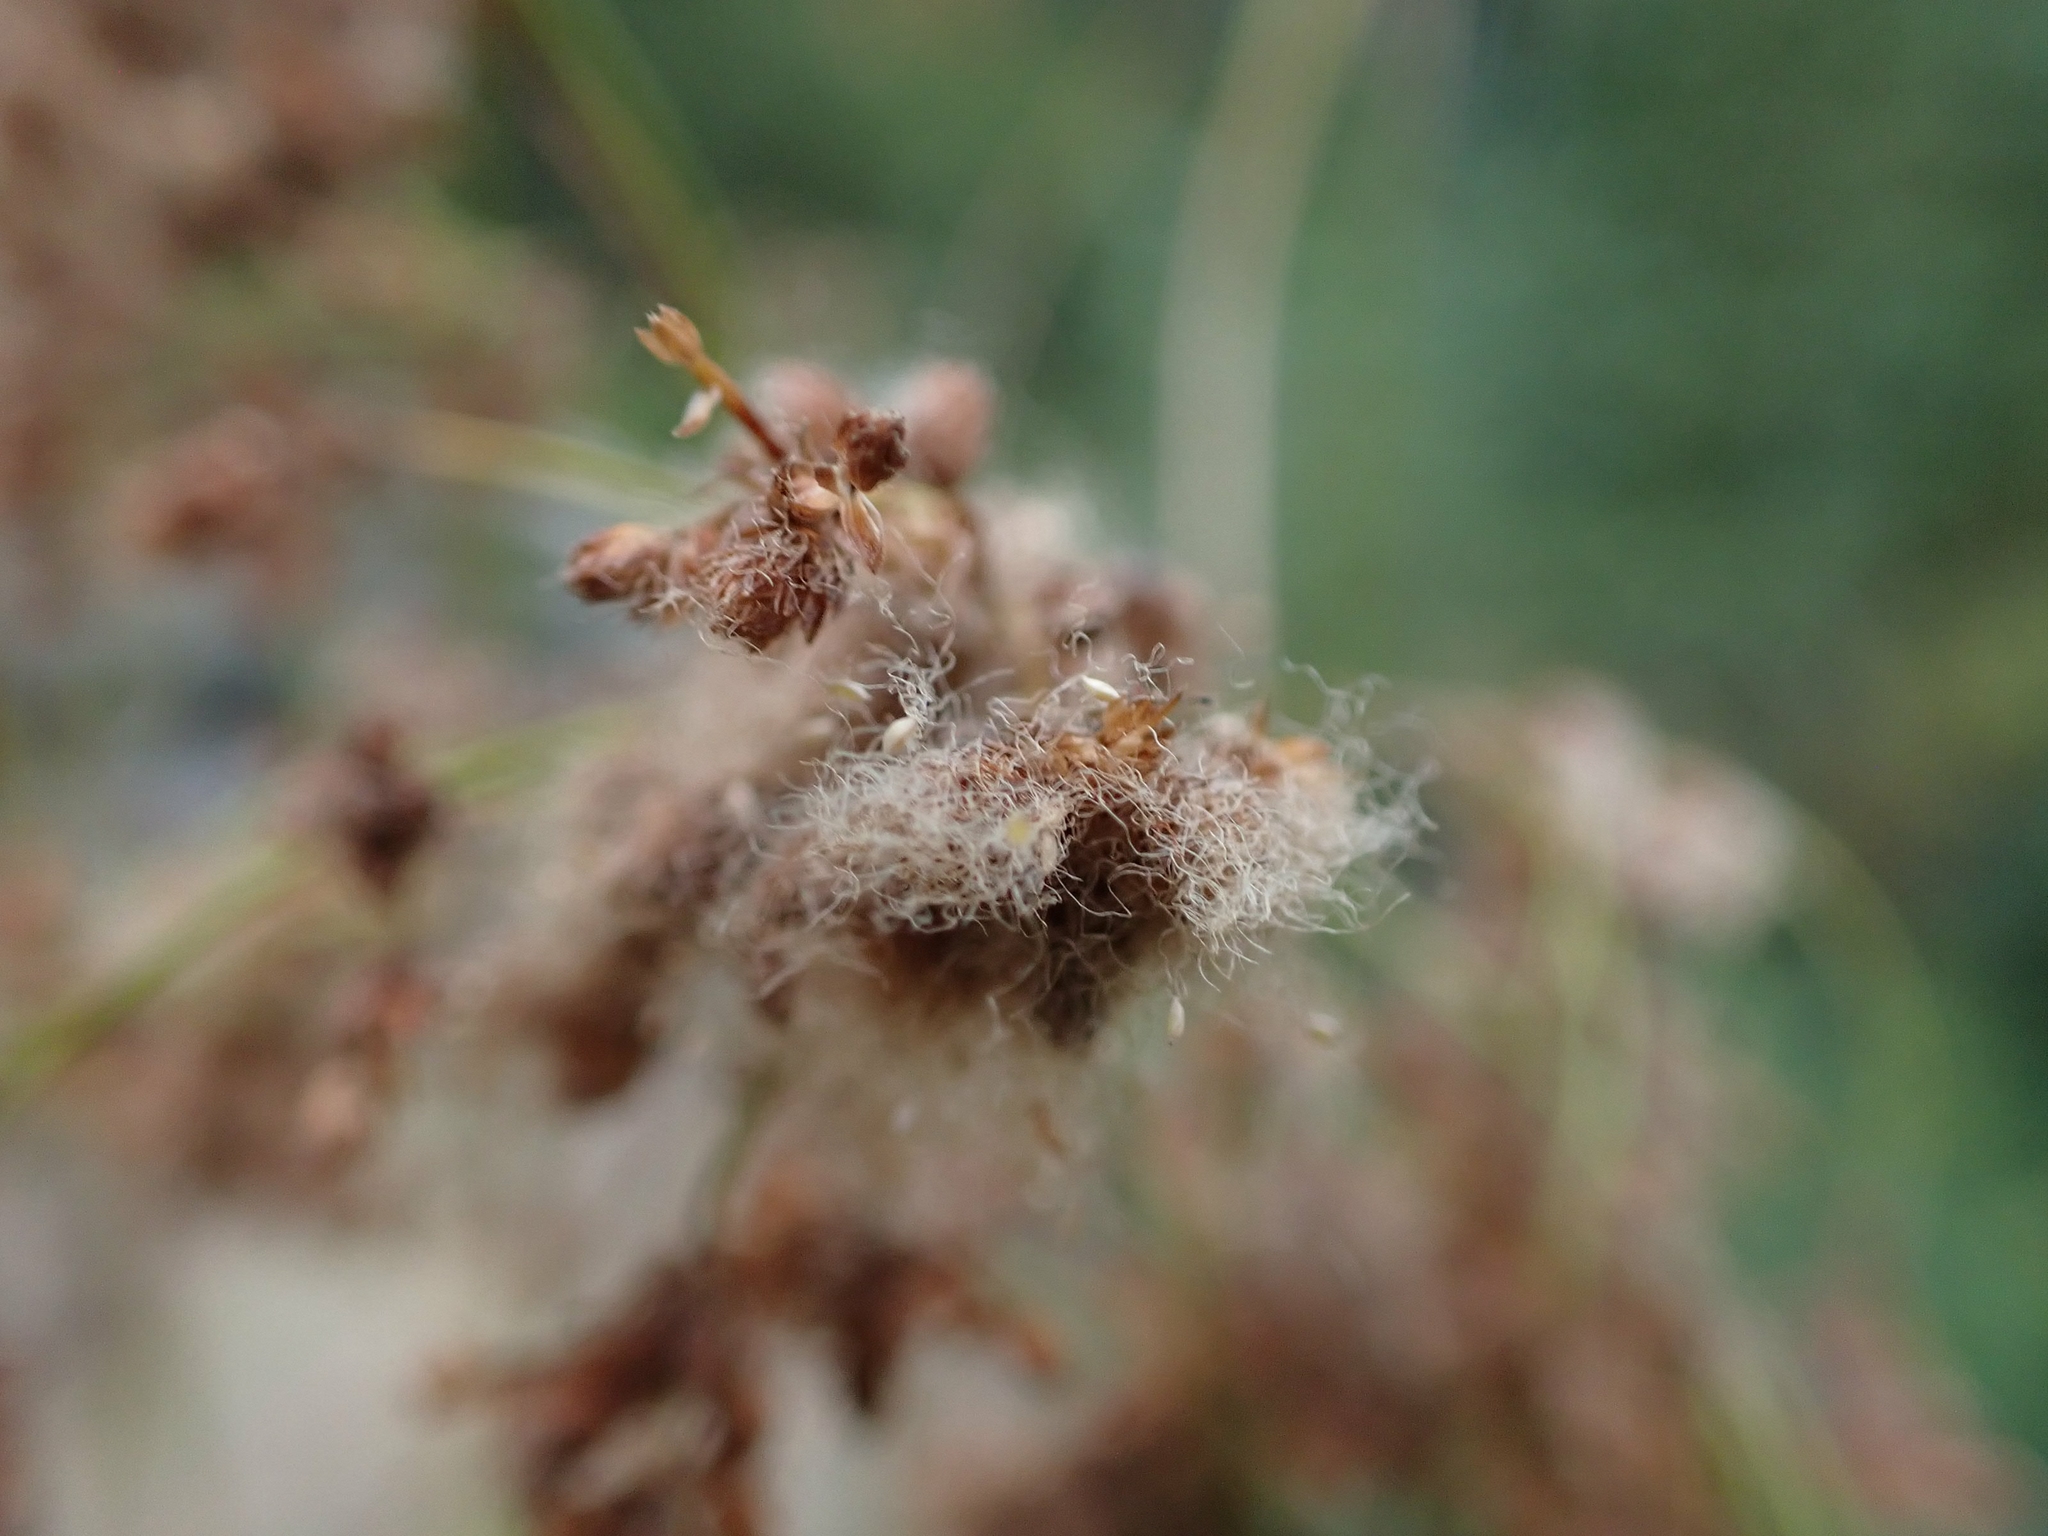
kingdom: Plantae
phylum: Tracheophyta
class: Liliopsida
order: Poales
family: Cyperaceae
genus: Scirpus
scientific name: Scirpus cyperinus
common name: Black-sheathed bulrush
